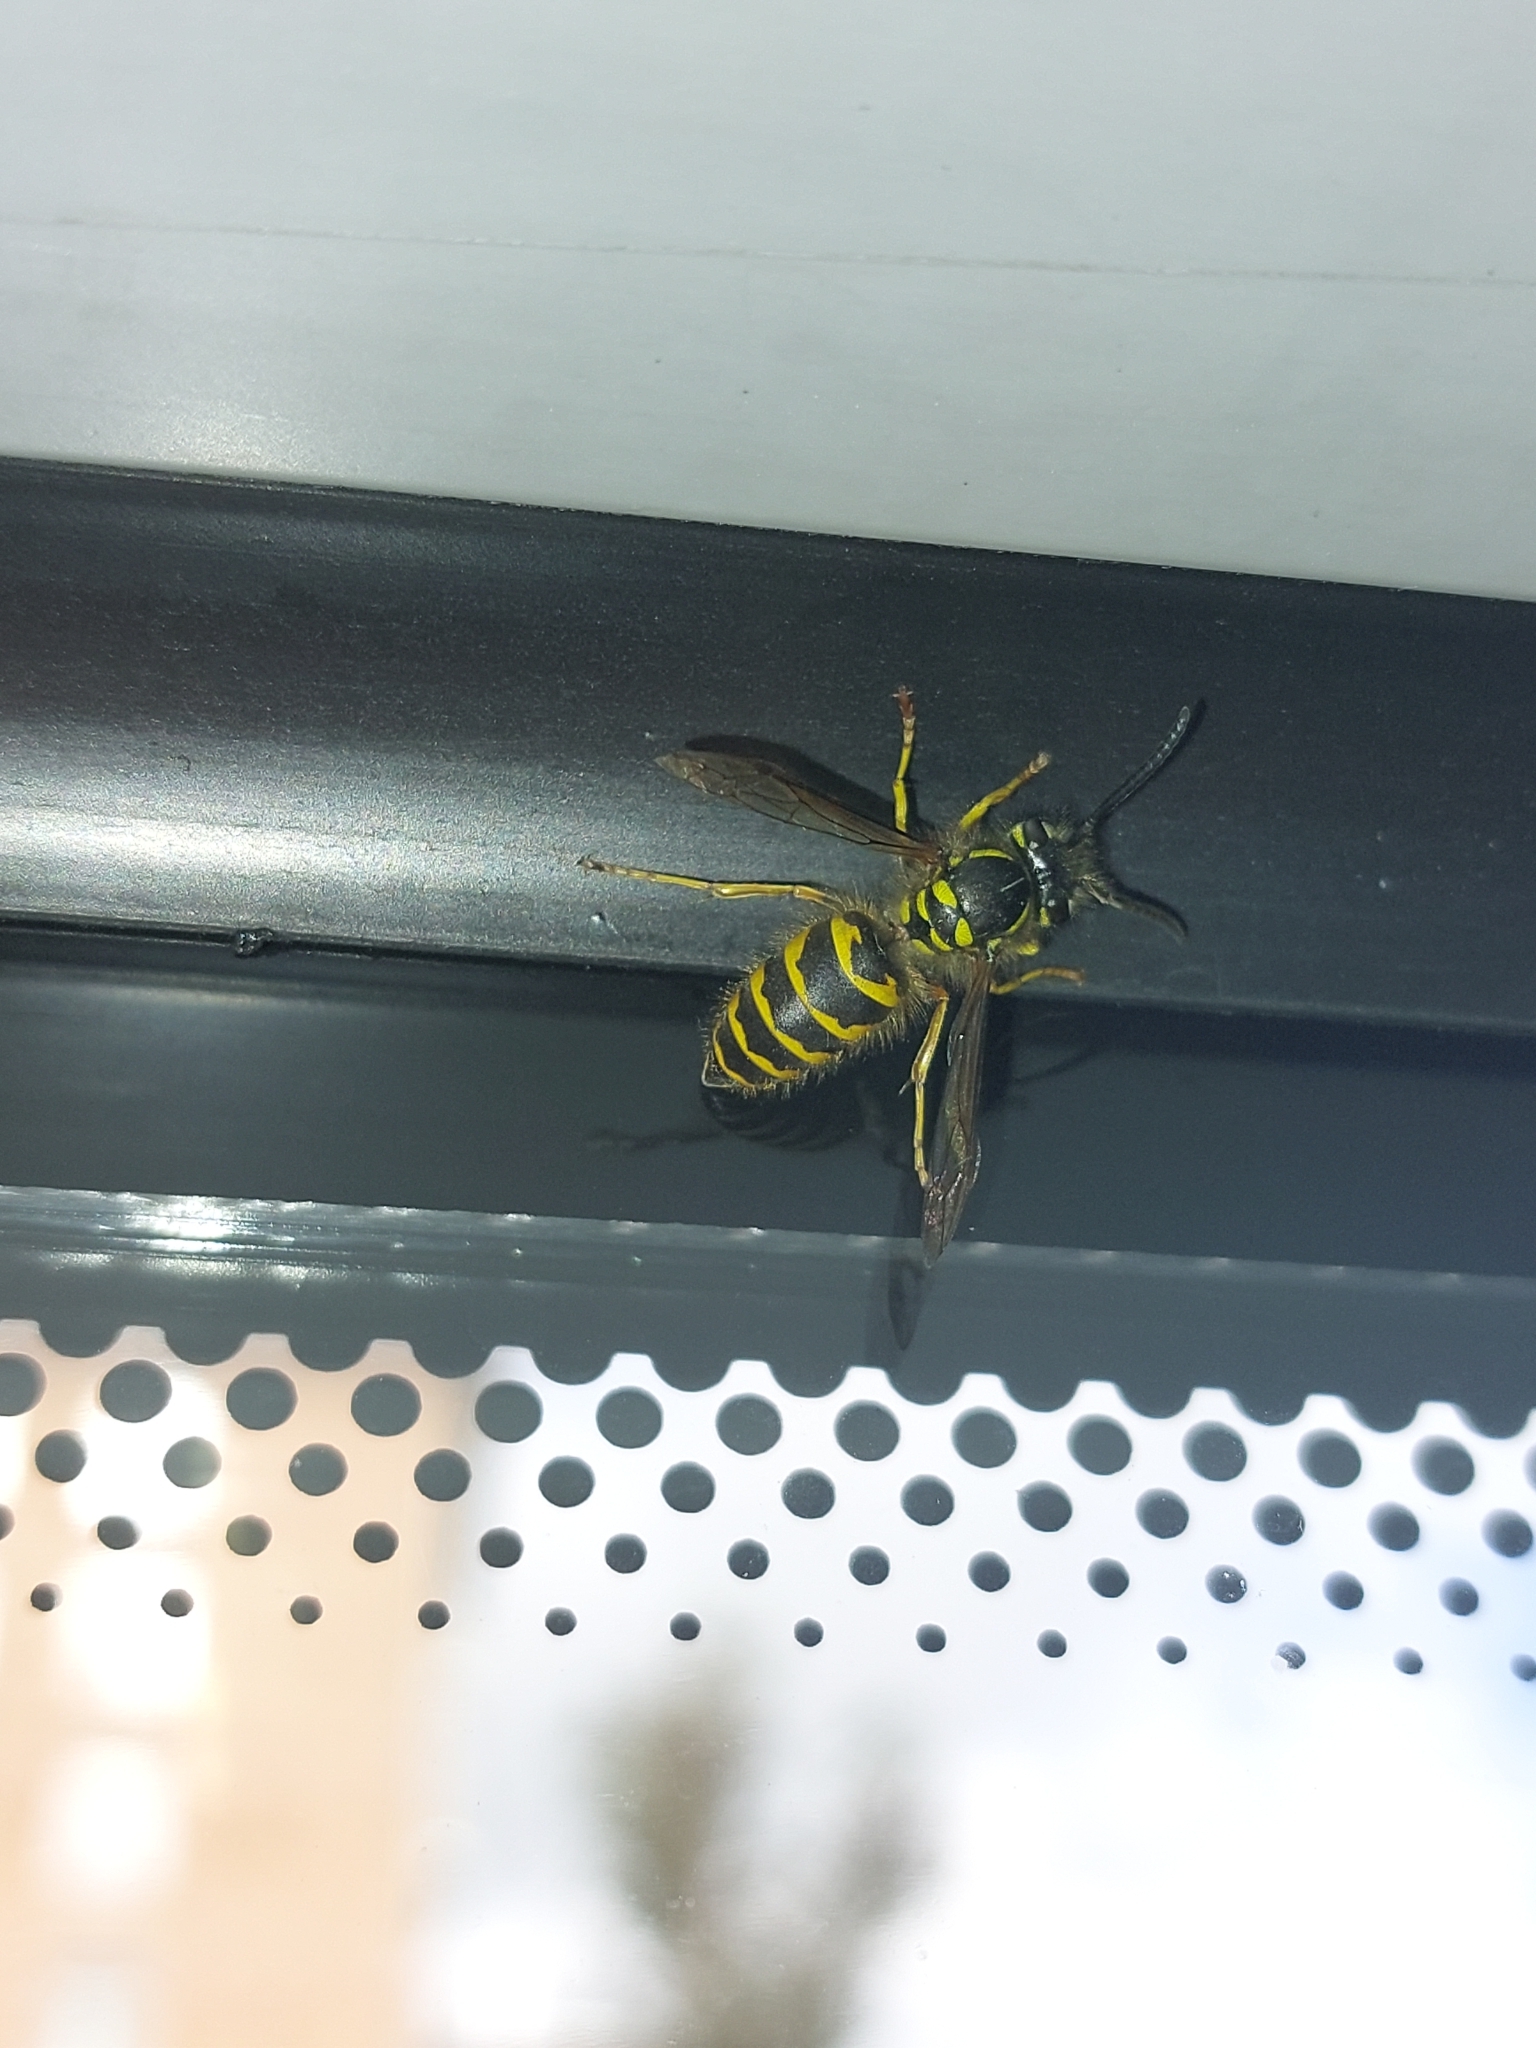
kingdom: Animalia
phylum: Arthropoda
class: Insecta
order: Hymenoptera
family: Vespidae
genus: Vespula
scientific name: Vespula vulgaris
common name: Common wasp
